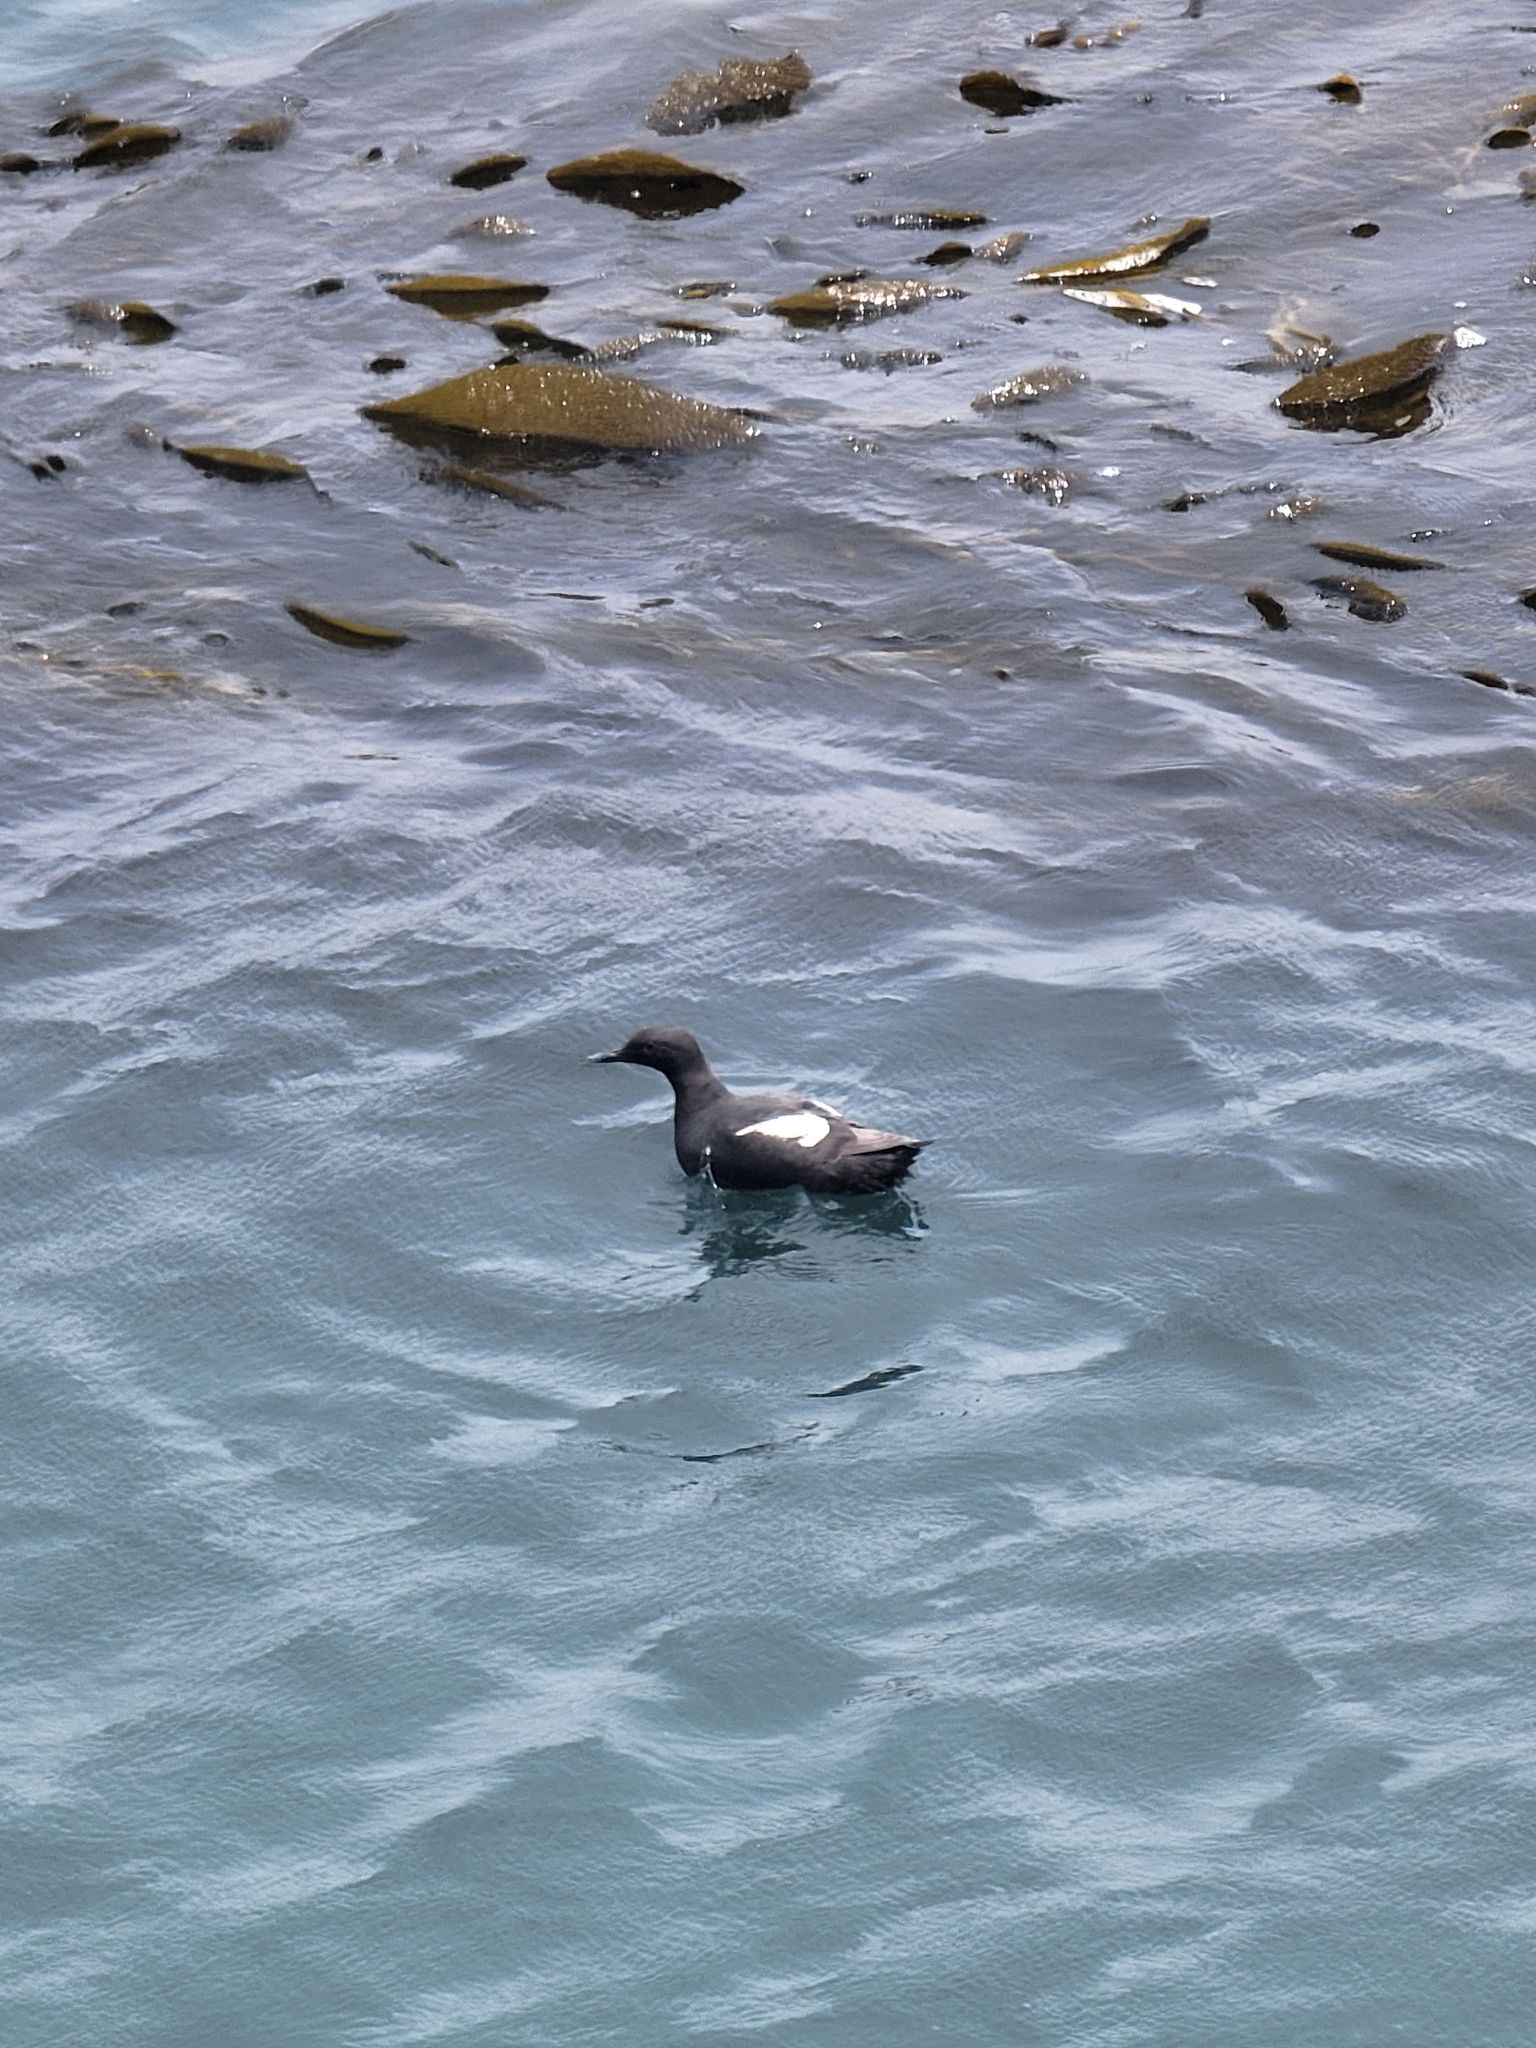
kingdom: Animalia
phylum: Chordata
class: Aves
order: Charadriiformes
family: Alcidae
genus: Cepphus
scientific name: Cepphus columba
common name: Pigeon guillemot
